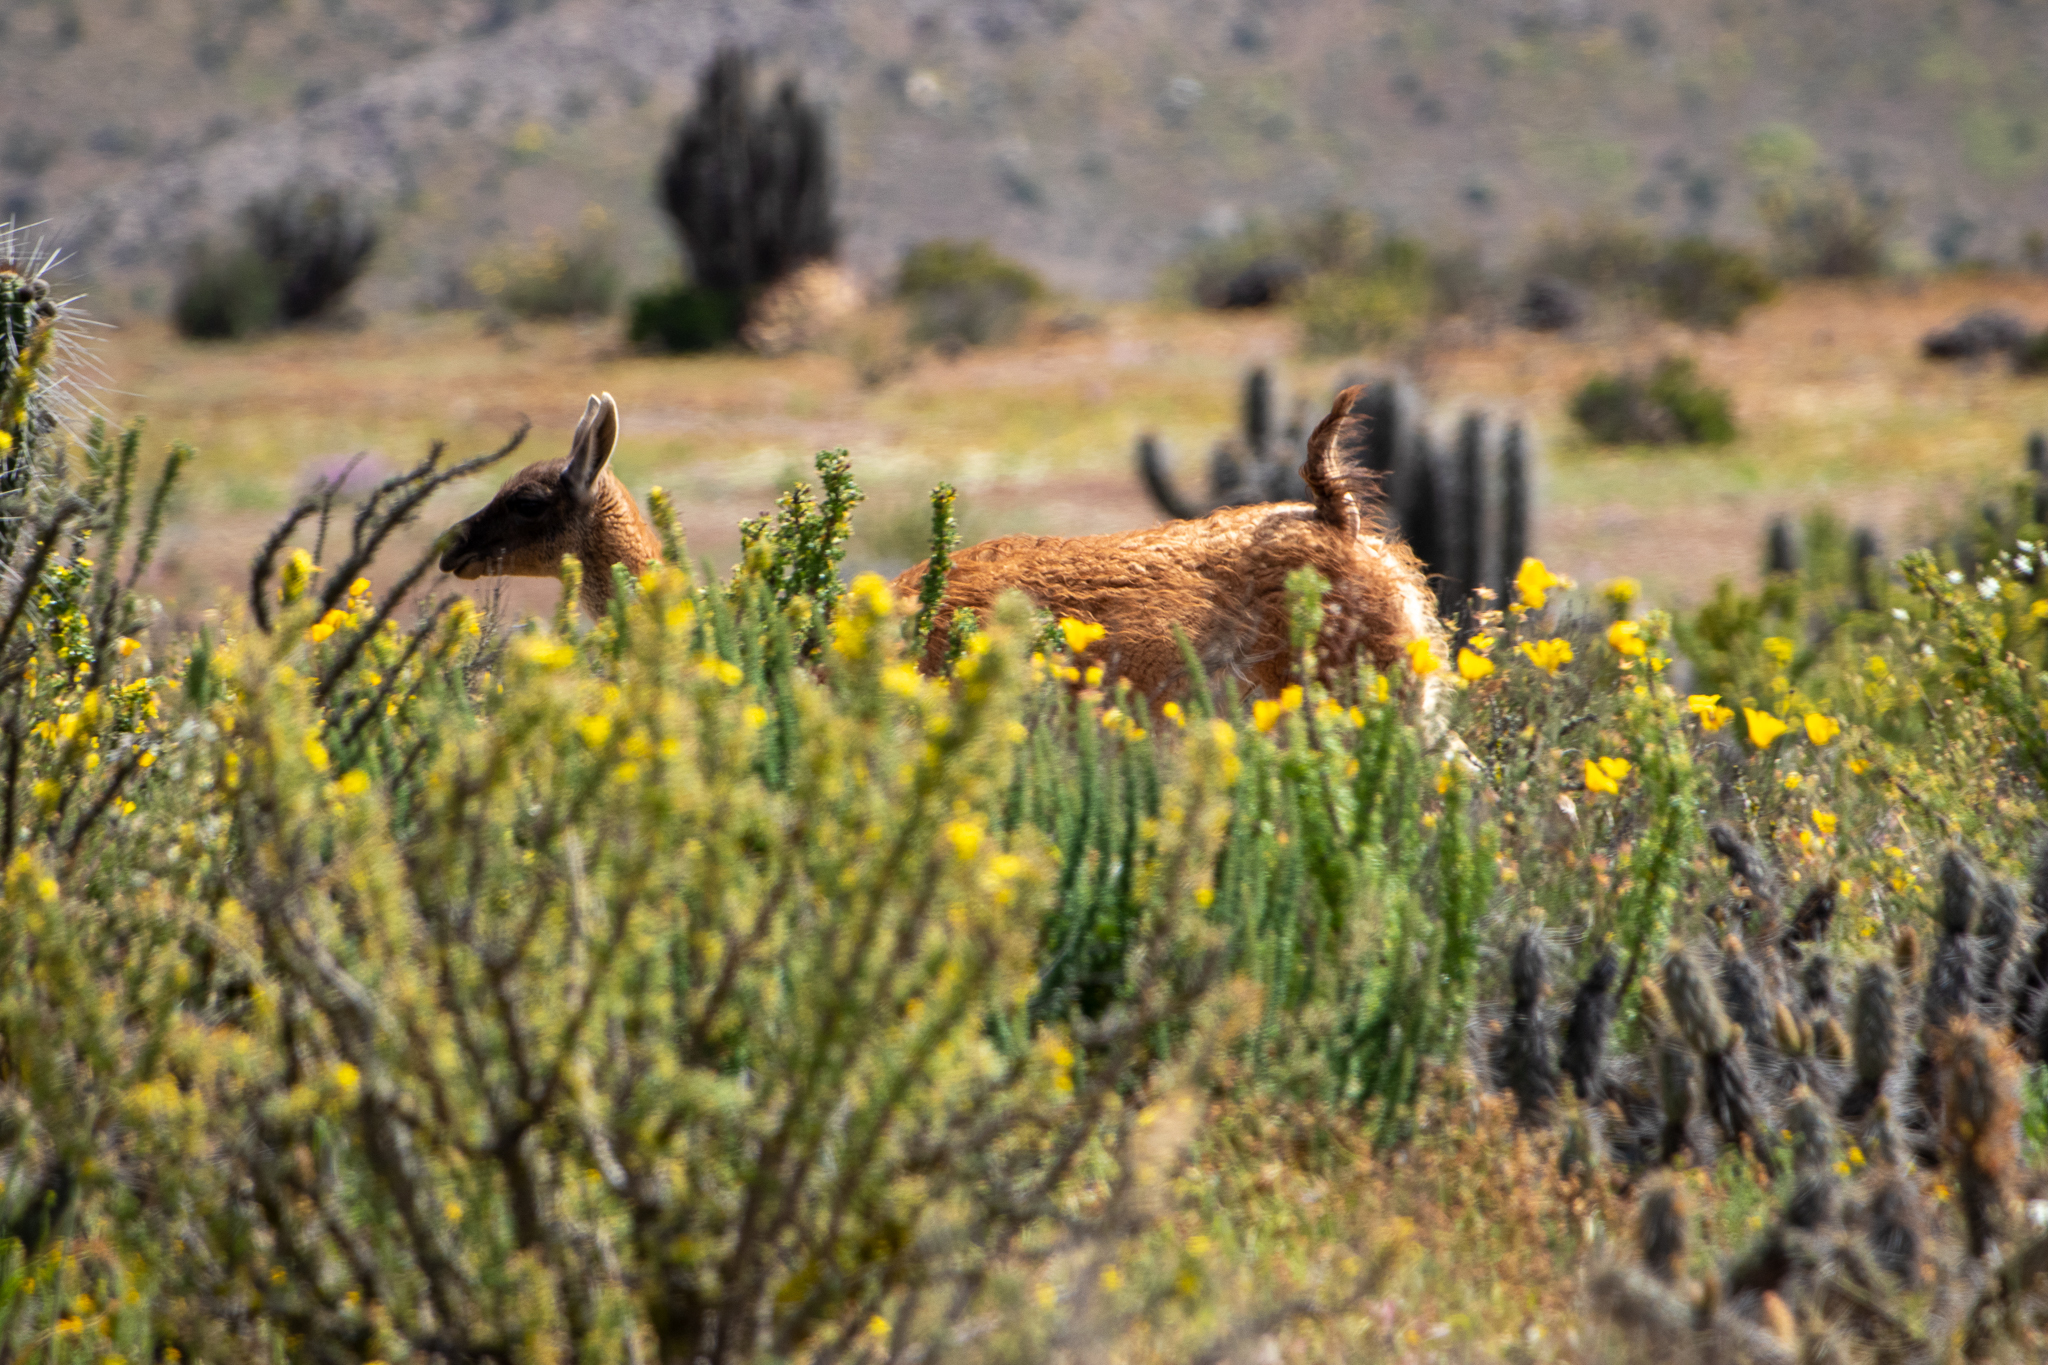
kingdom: Animalia
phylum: Chordata
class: Mammalia
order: Artiodactyla
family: Camelidae
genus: Lama
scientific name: Lama glama
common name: Llama
